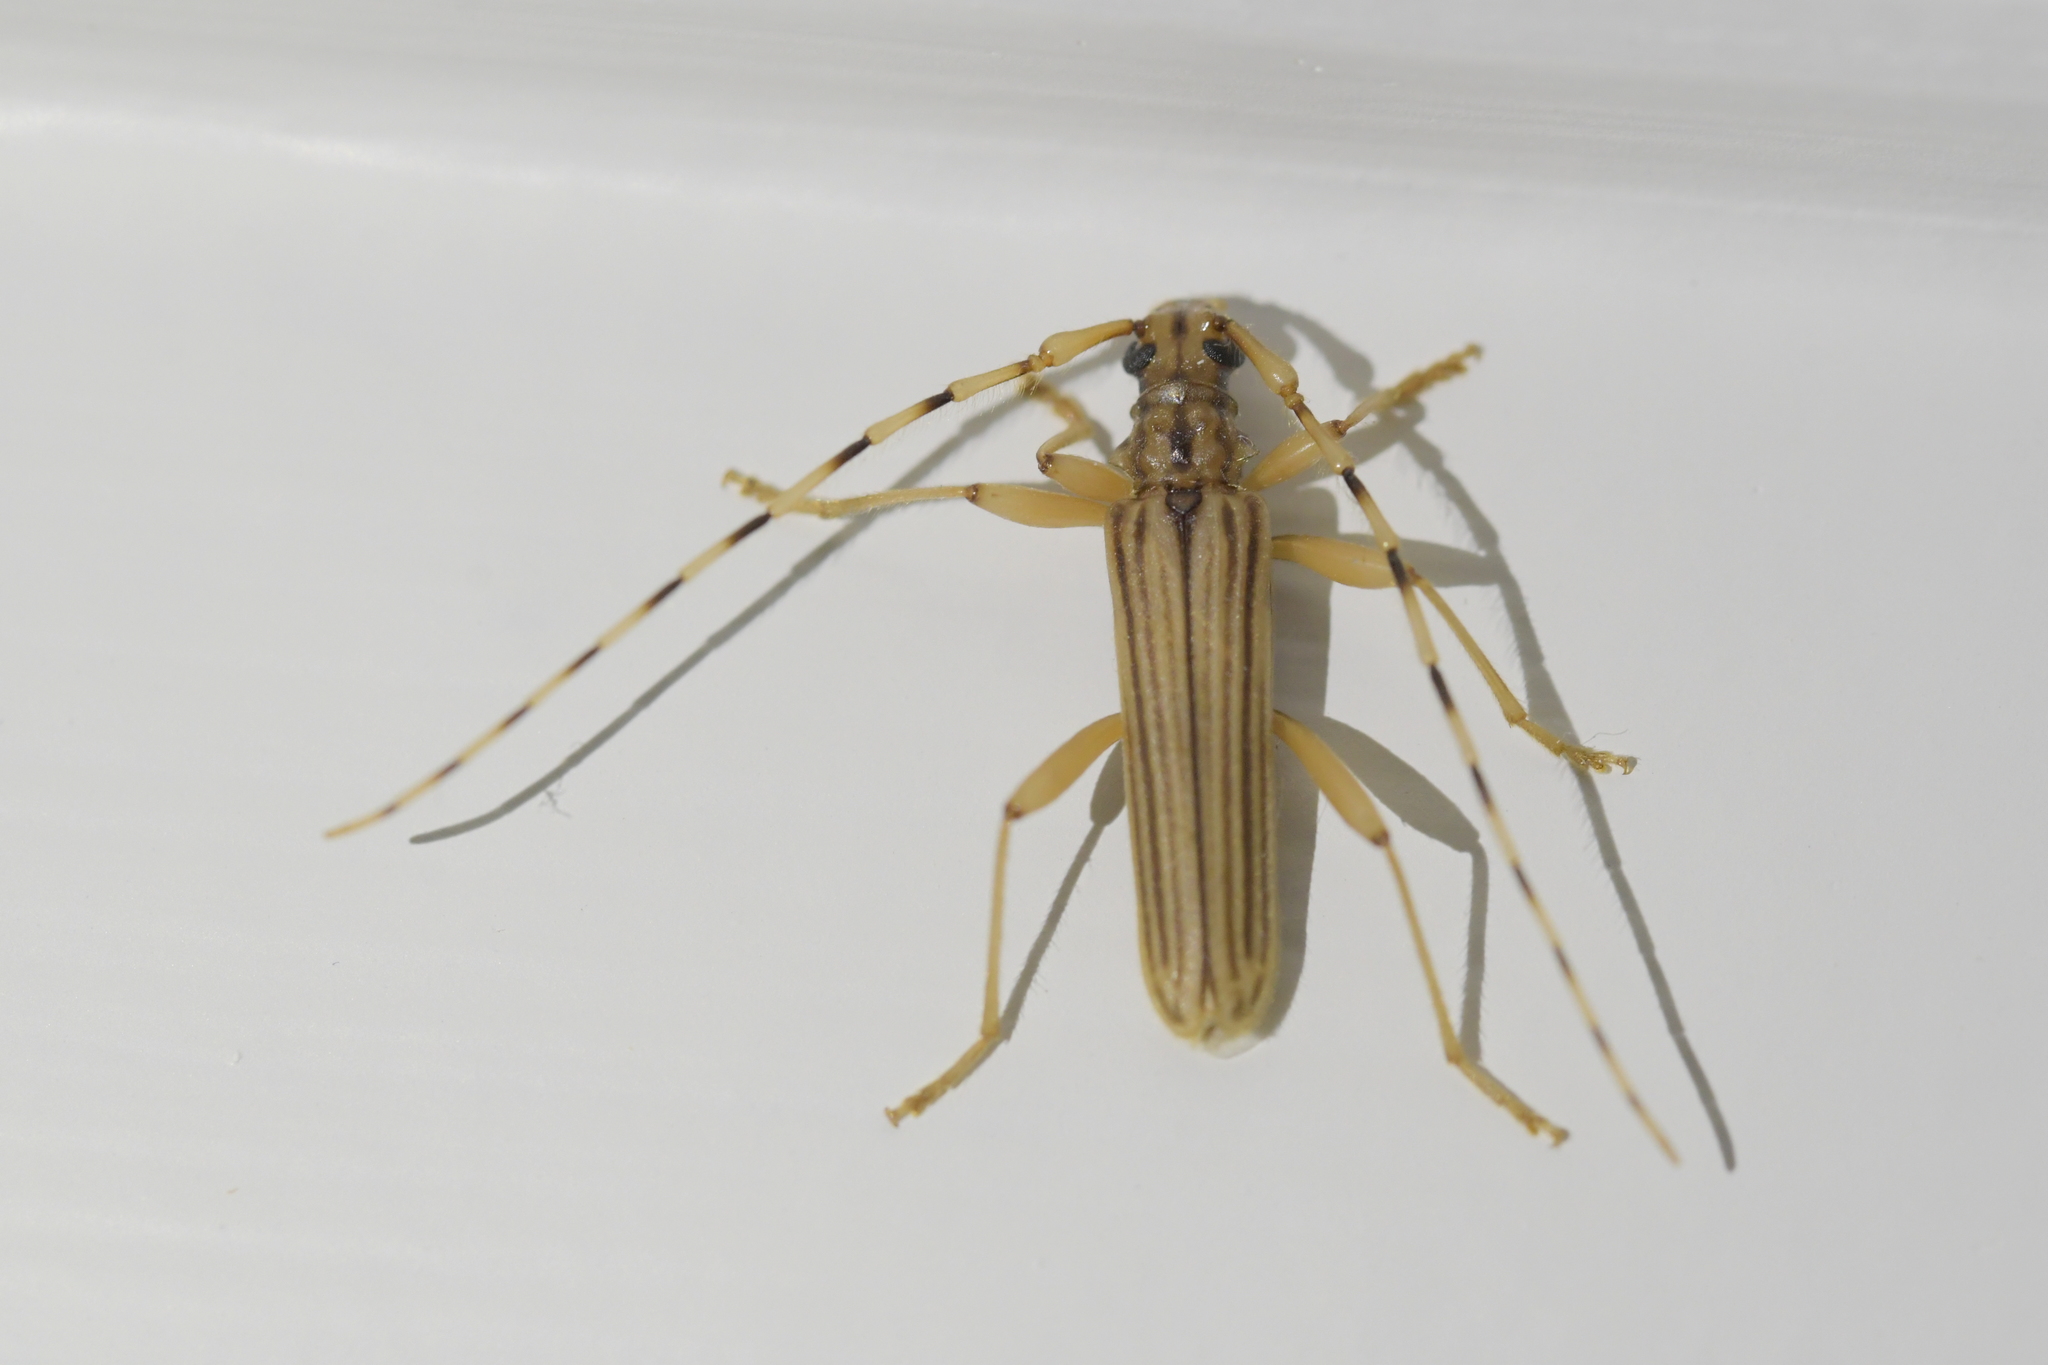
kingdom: Animalia
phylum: Arthropoda
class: Insecta
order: Coleoptera
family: Cerambycidae
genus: Leptachrous
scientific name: Leptachrous strigipennis
